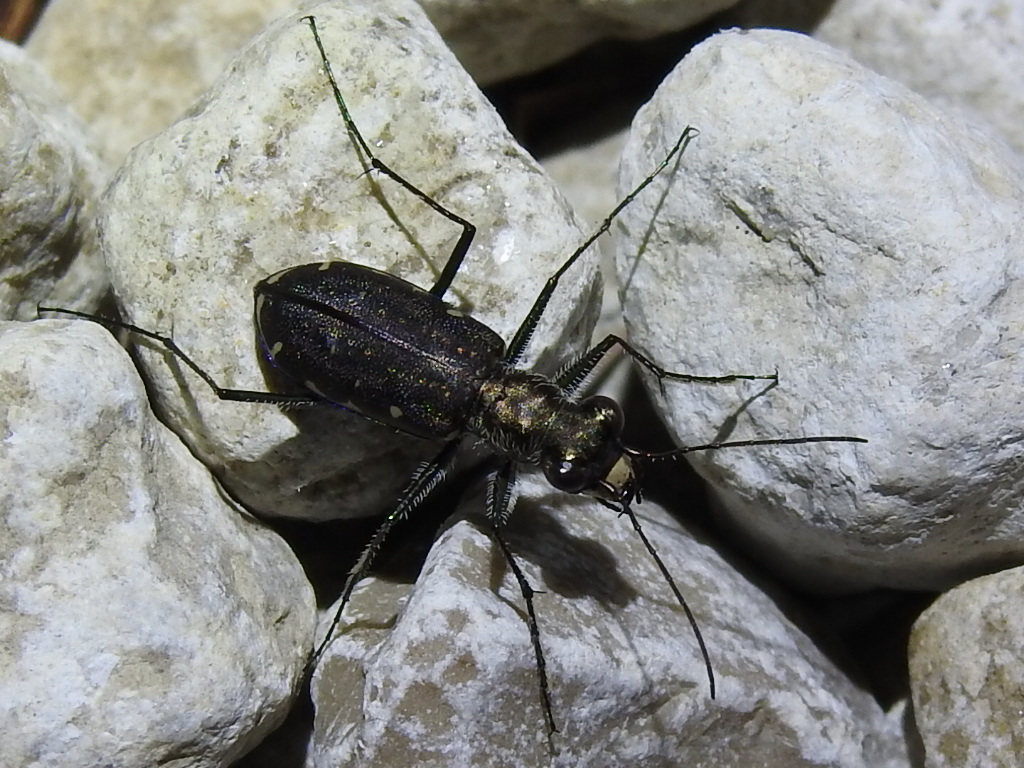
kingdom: Animalia
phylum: Arthropoda
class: Insecta
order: Coleoptera
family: Carabidae
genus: Cicindela
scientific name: Cicindela punctulata
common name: Punctured tiger beetle
